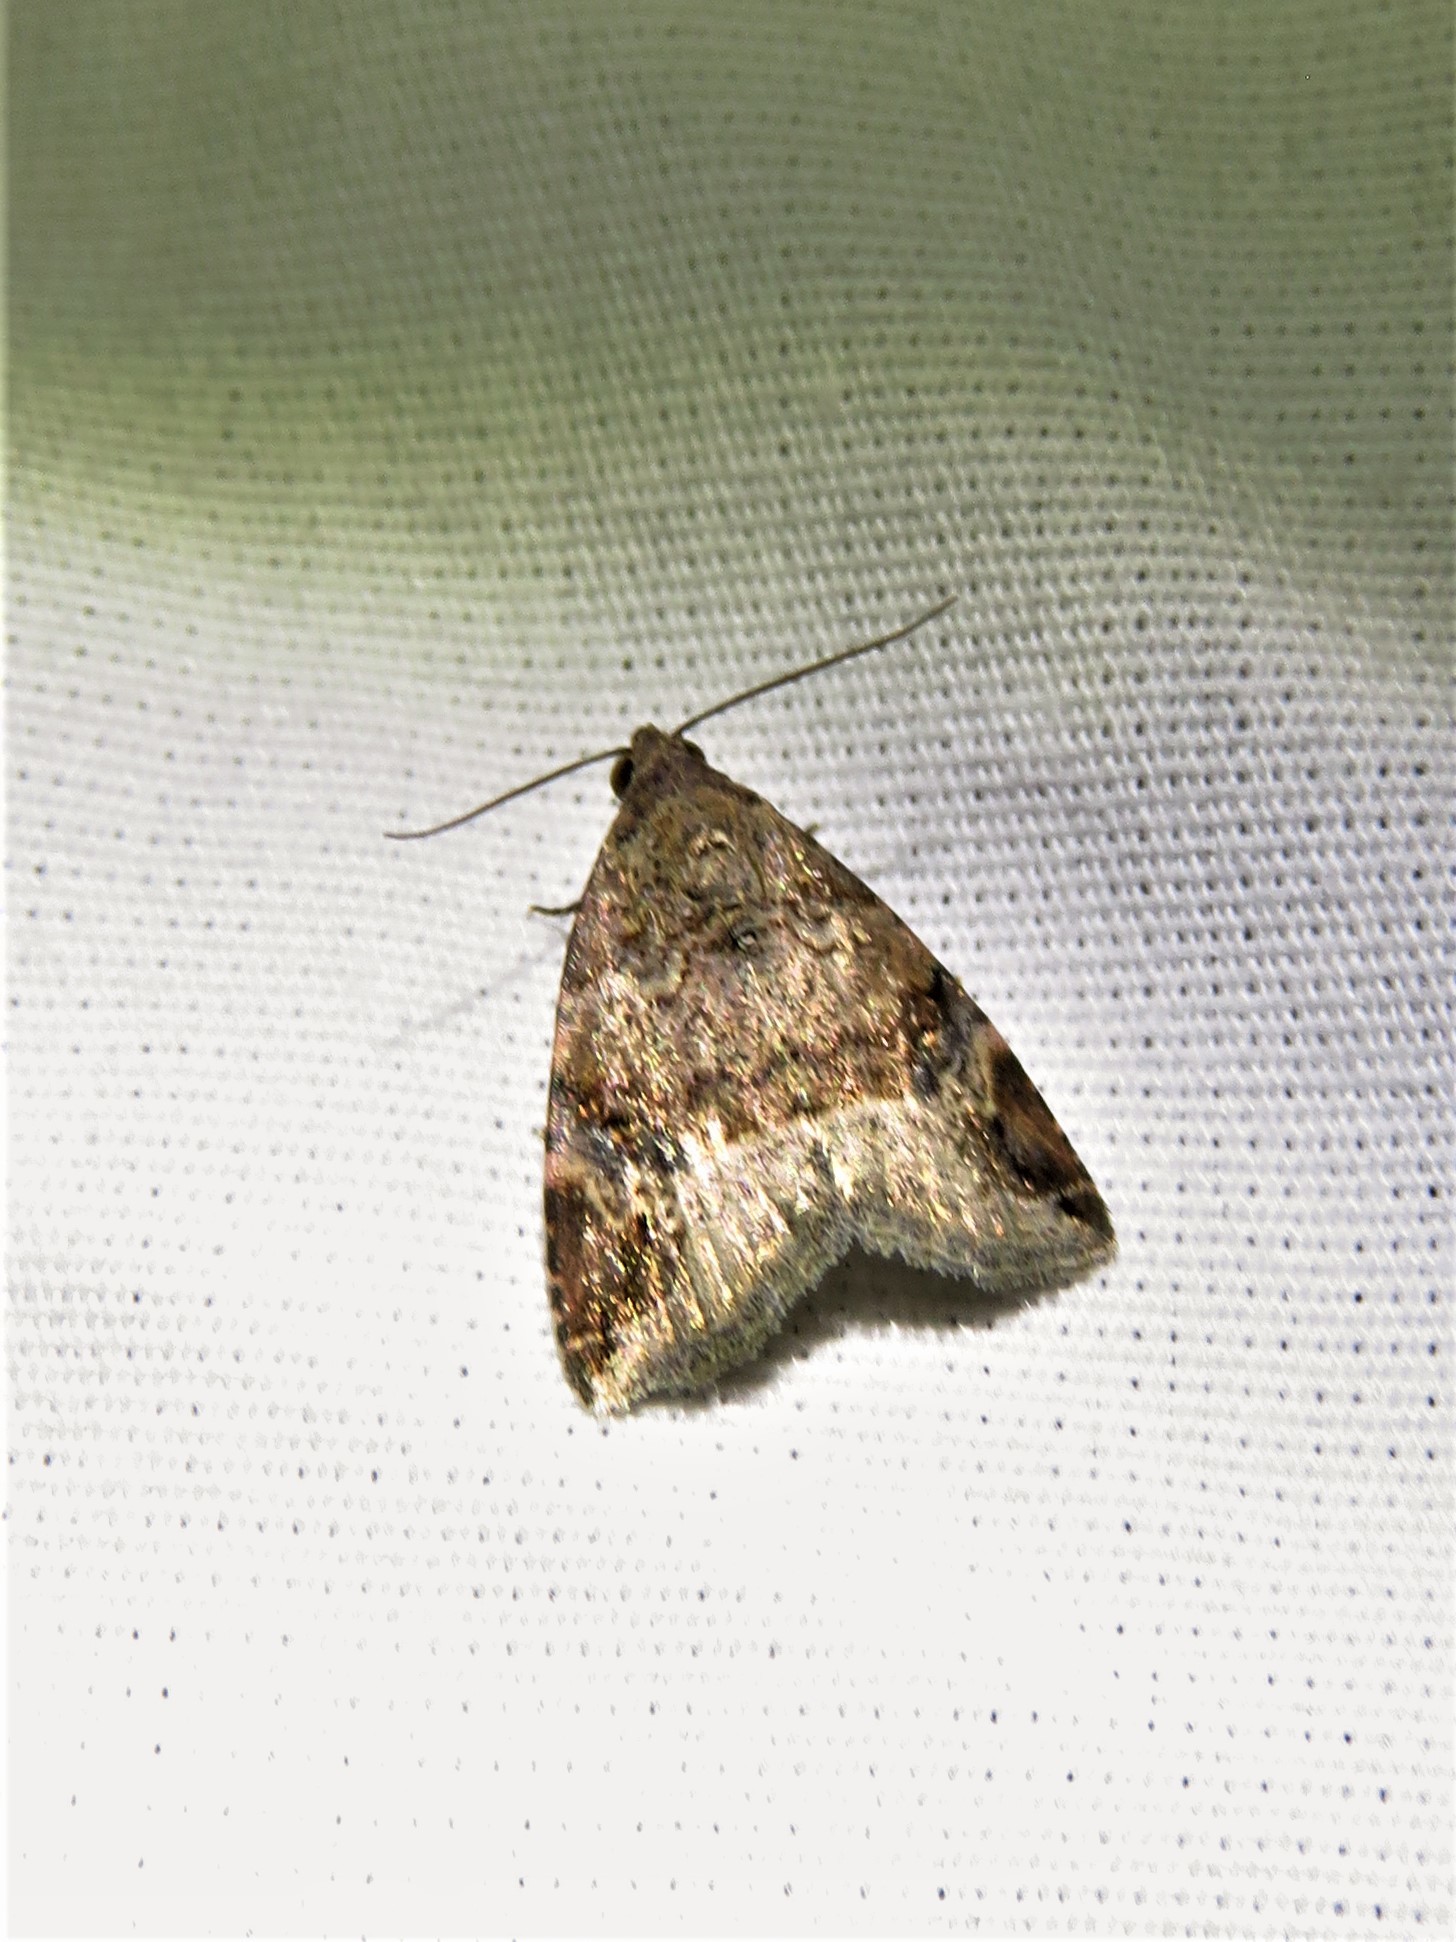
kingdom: Animalia
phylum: Arthropoda
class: Insecta
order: Lepidoptera
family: Noctuidae
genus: Ozarba
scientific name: Ozarba aeria
